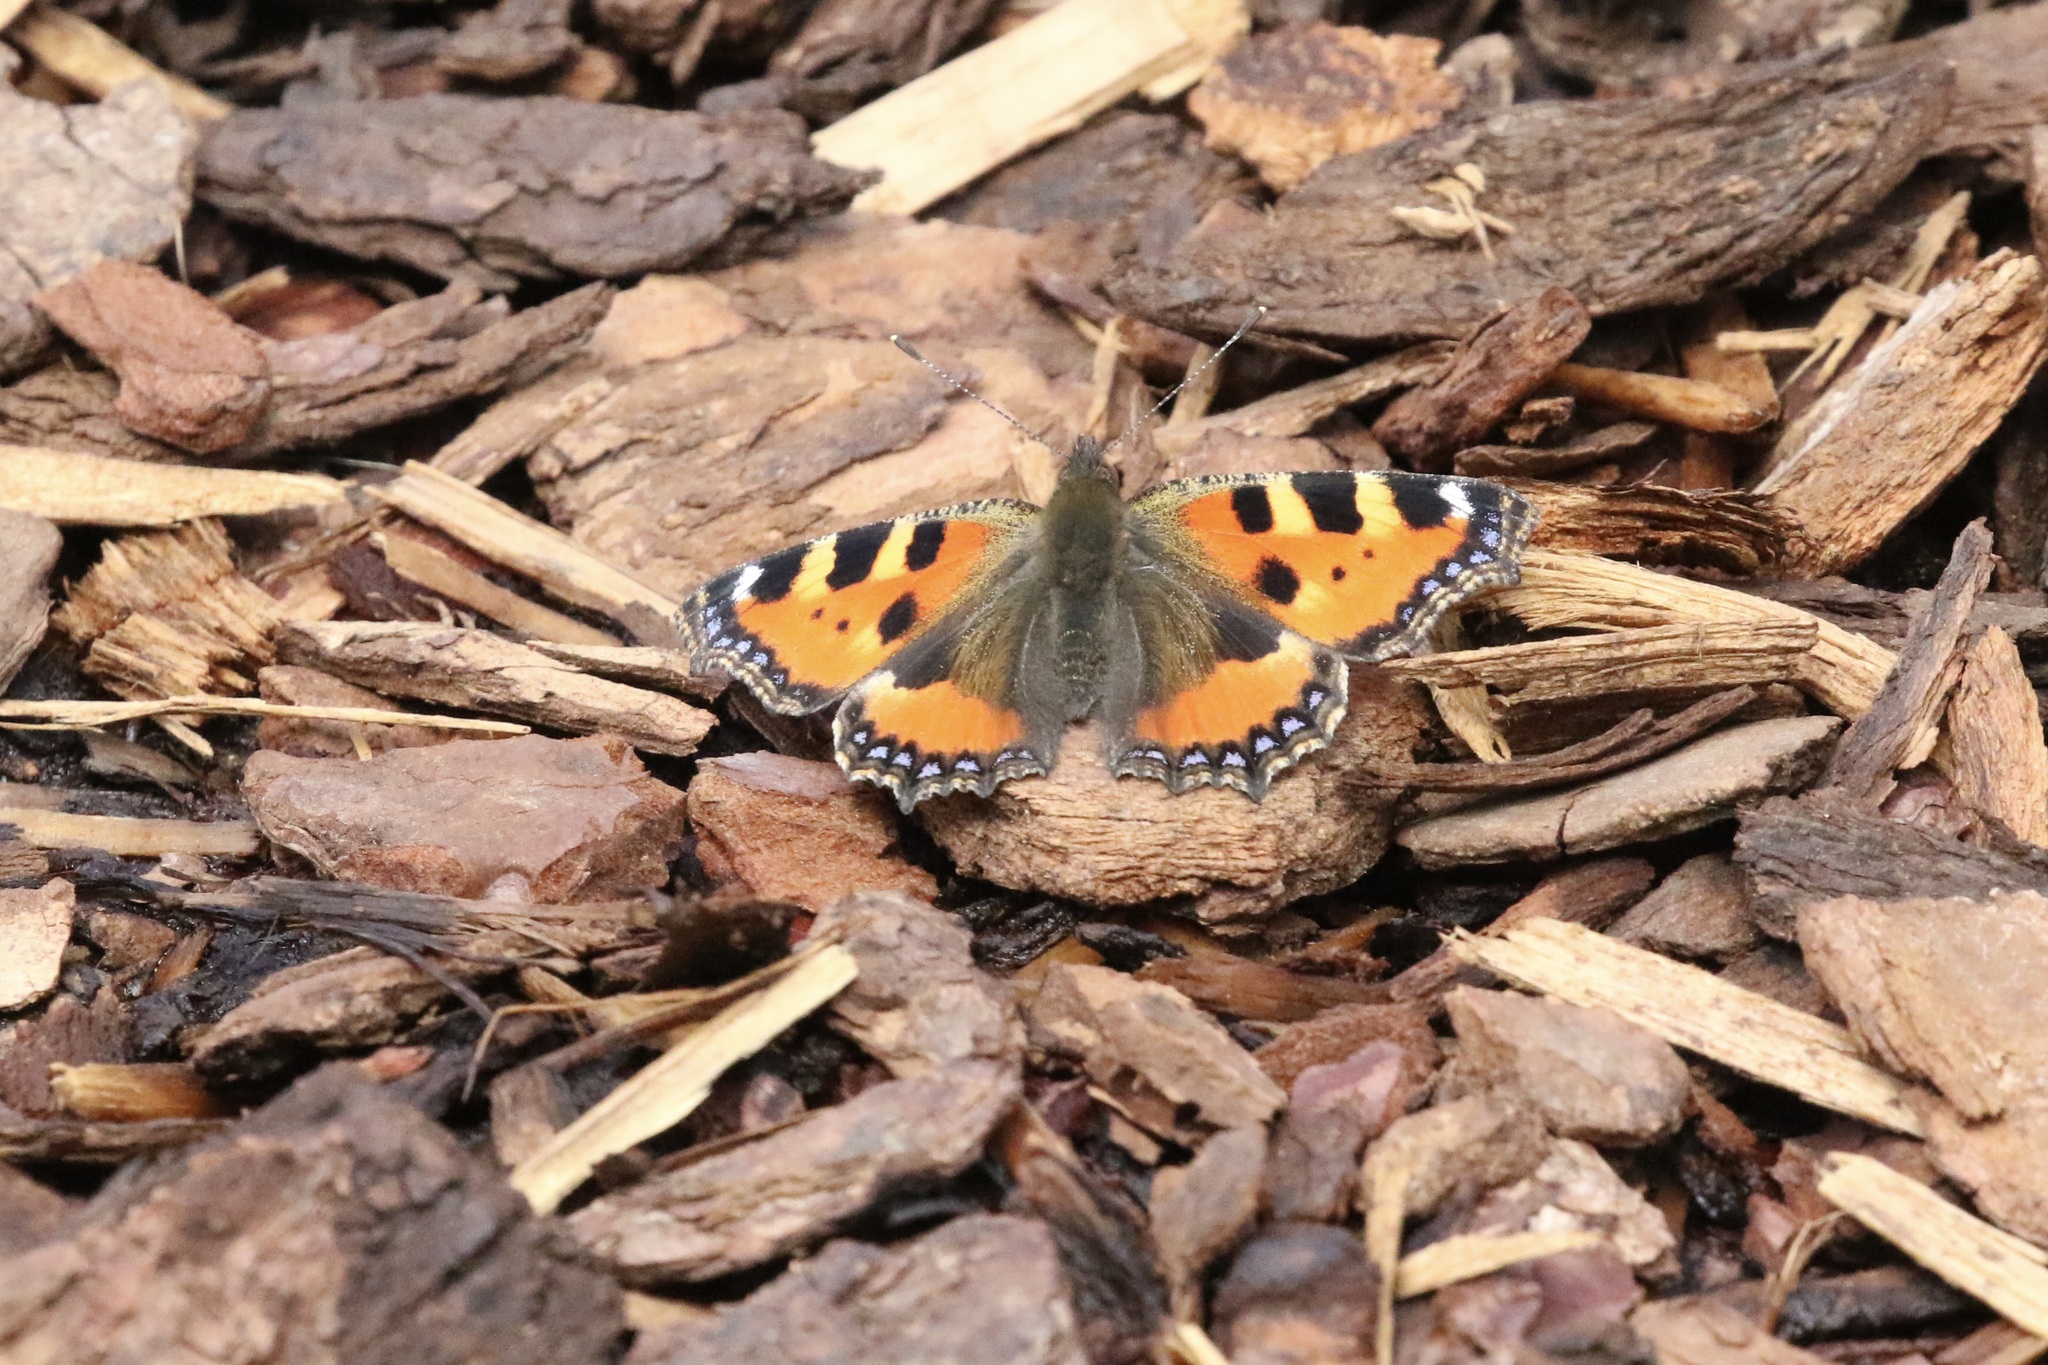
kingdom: Animalia
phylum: Arthropoda
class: Insecta
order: Lepidoptera
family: Nymphalidae
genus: Aglais
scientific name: Aglais urticae
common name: Small tortoiseshell
